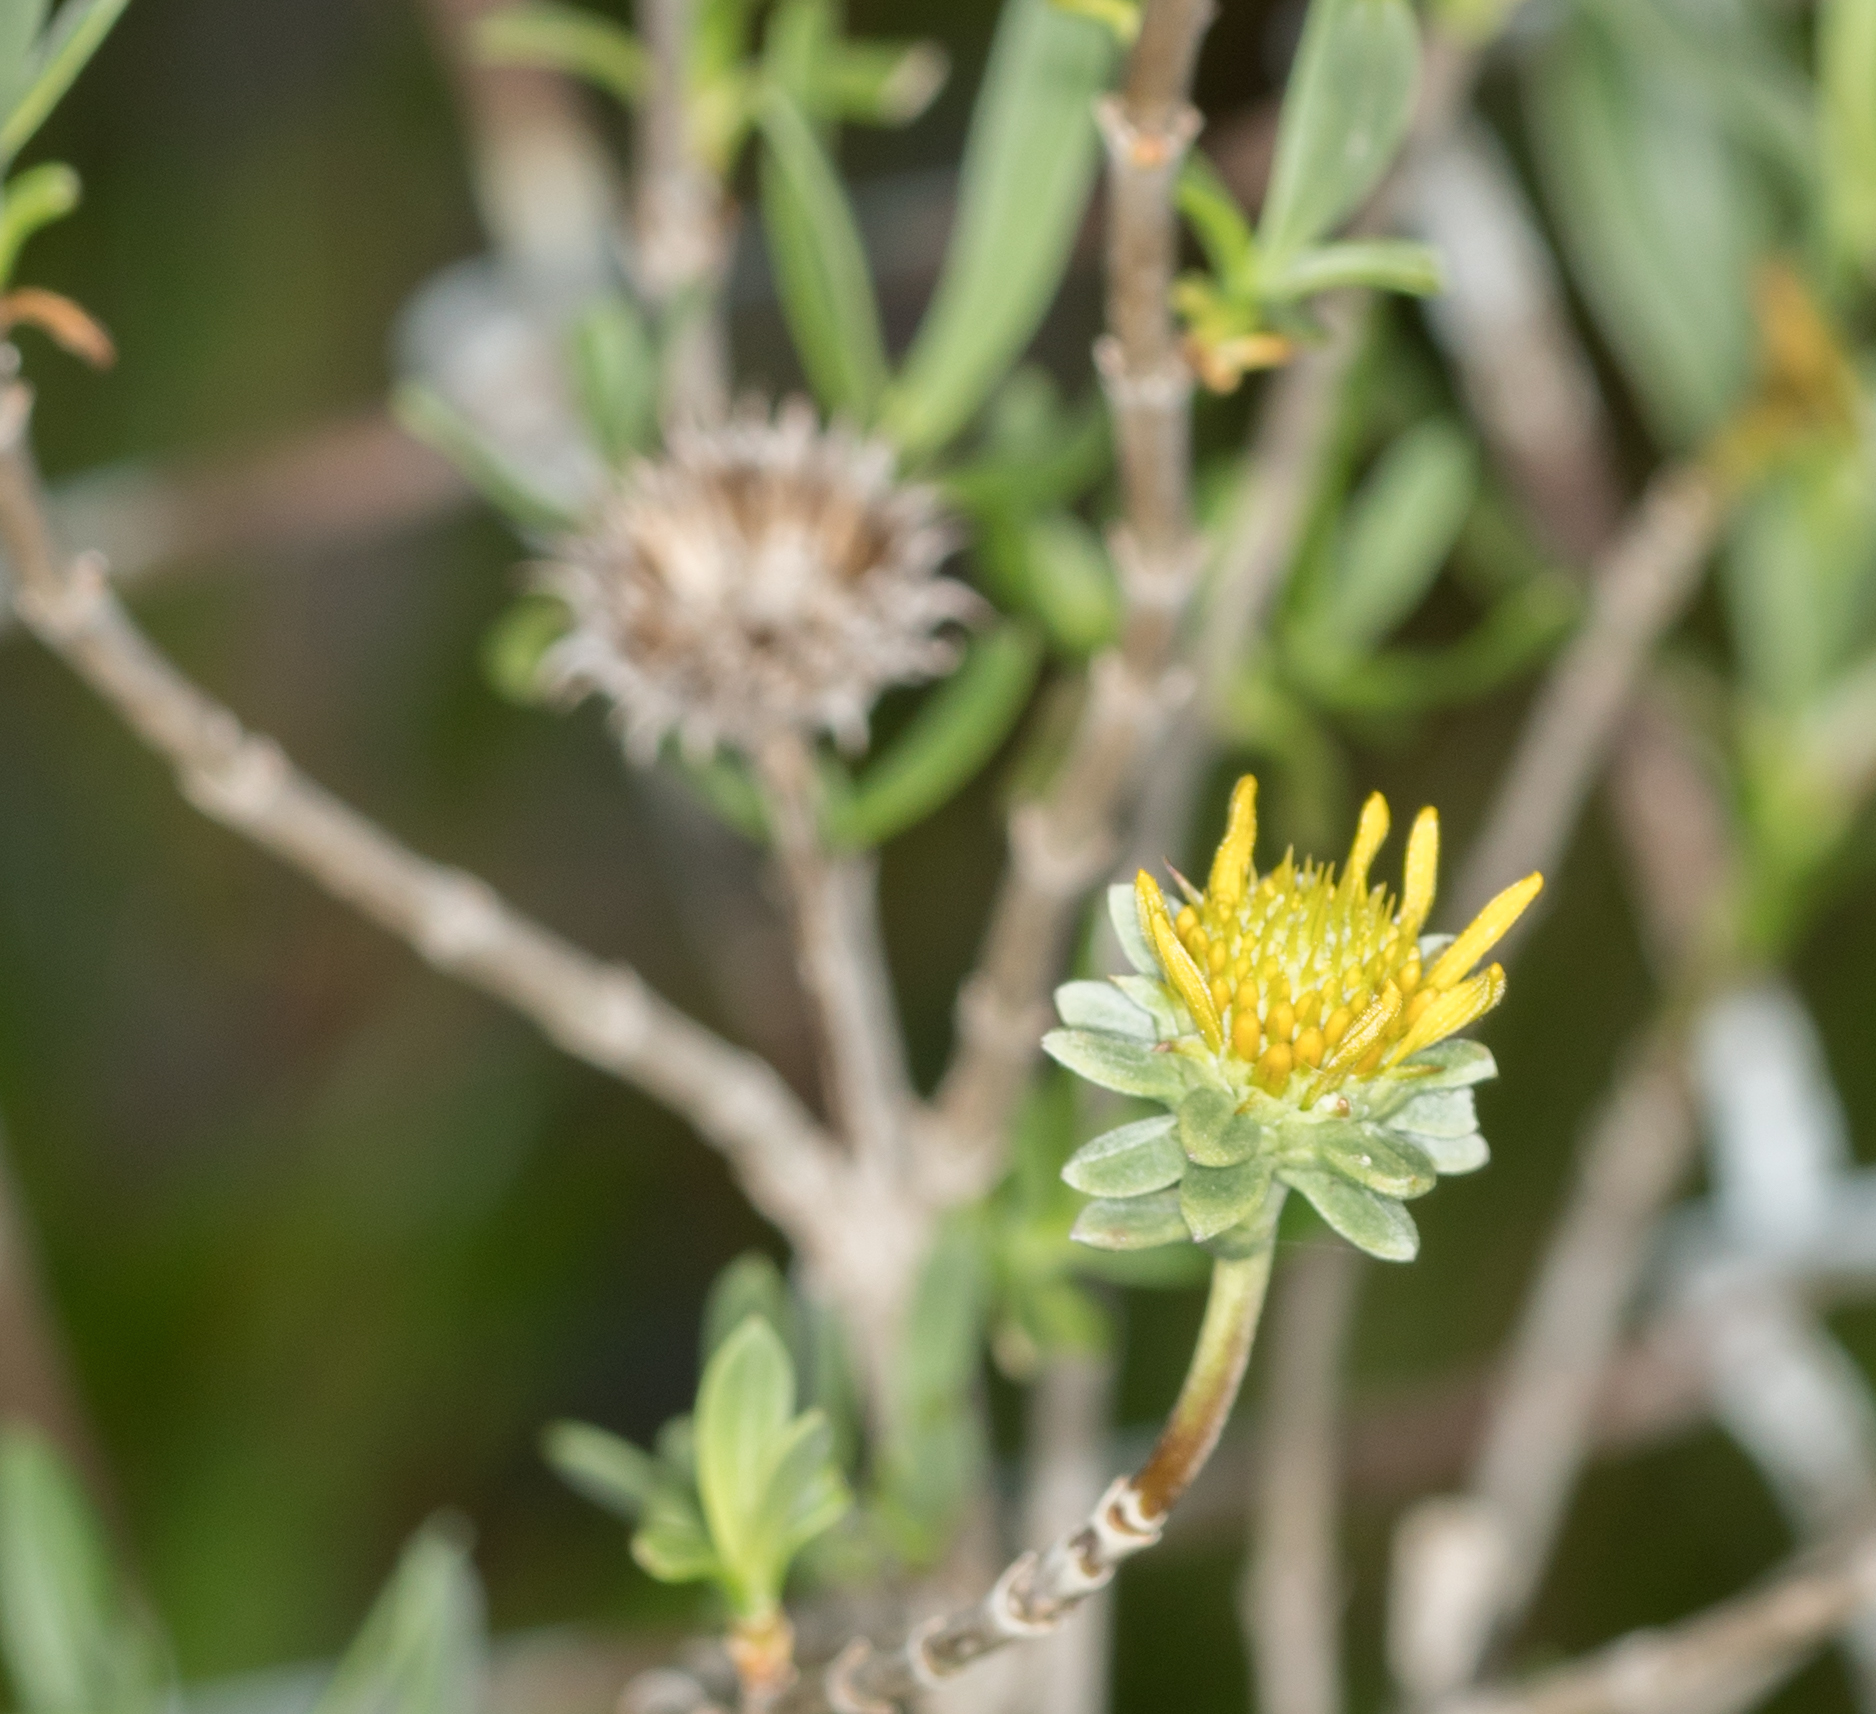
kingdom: Plantae
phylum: Tracheophyta
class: Magnoliopsida
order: Asterales
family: Asteraceae
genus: Borrichia
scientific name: Borrichia frutescens
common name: Sea oxeye
